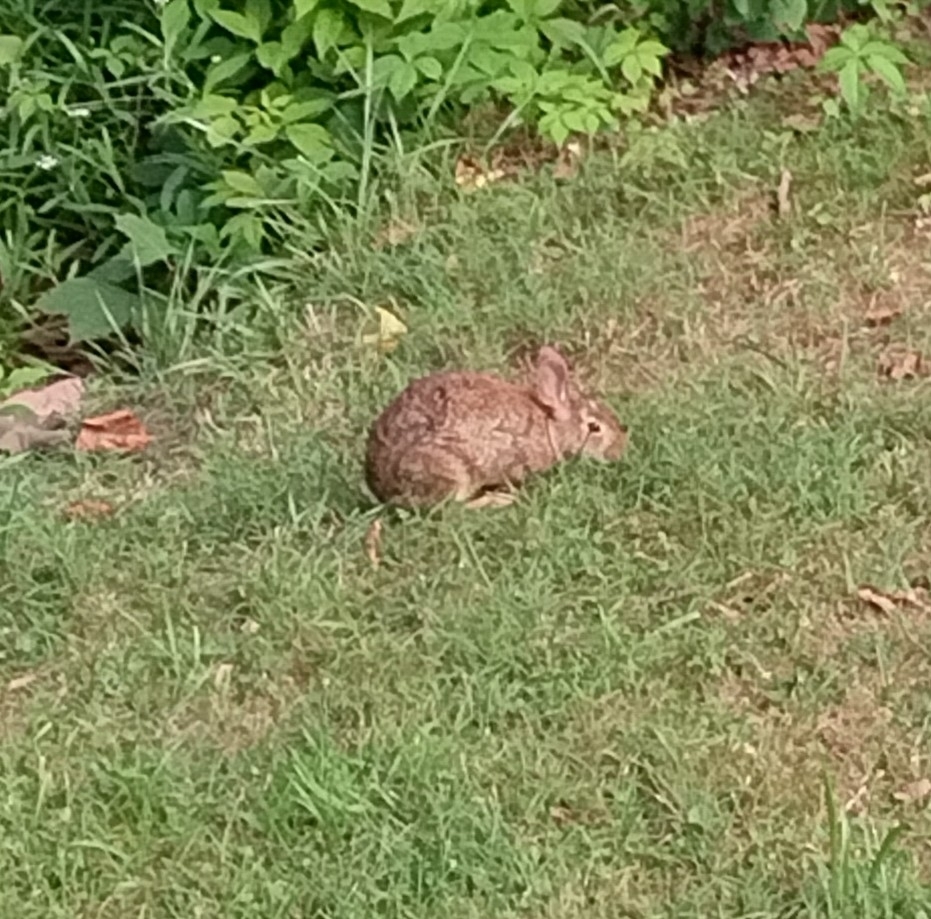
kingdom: Animalia
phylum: Chordata
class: Mammalia
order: Lagomorpha
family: Leporidae
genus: Sylvilagus
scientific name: Sylvilagus floridanus
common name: Eastern cottontail
